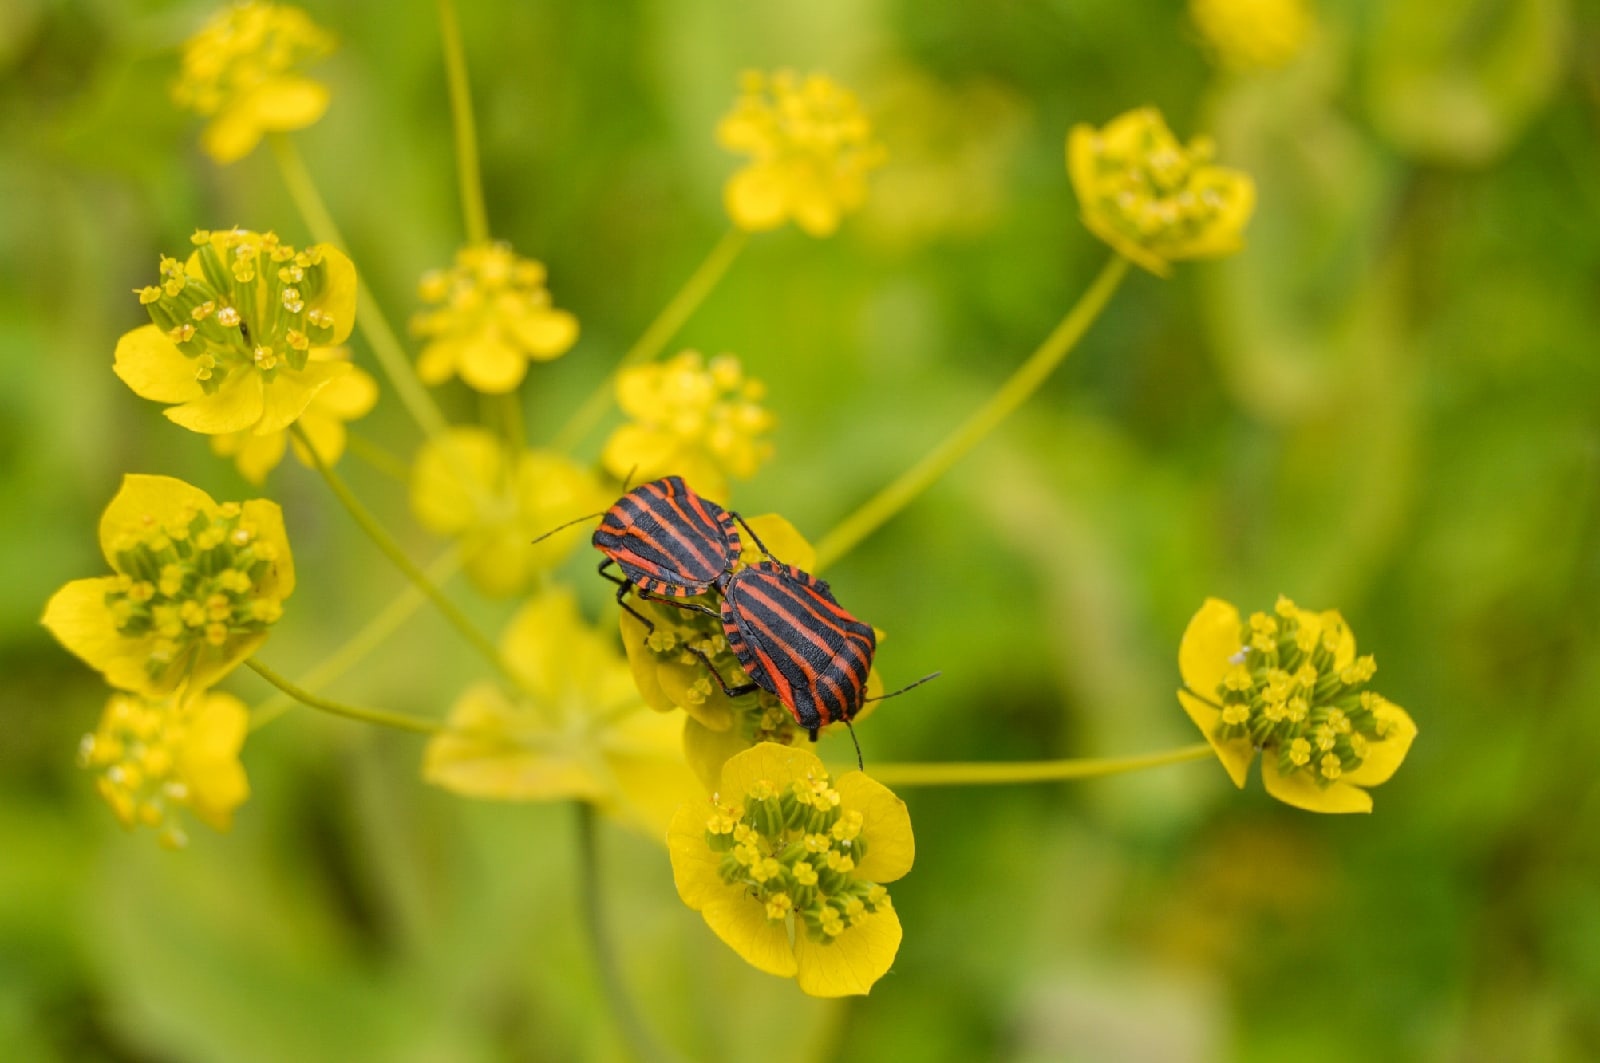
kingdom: Animalia
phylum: Arthropoda
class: Insecta
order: Hemiptera
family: Pentatomidae
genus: Graphosoma
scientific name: Graphosoma italicum
